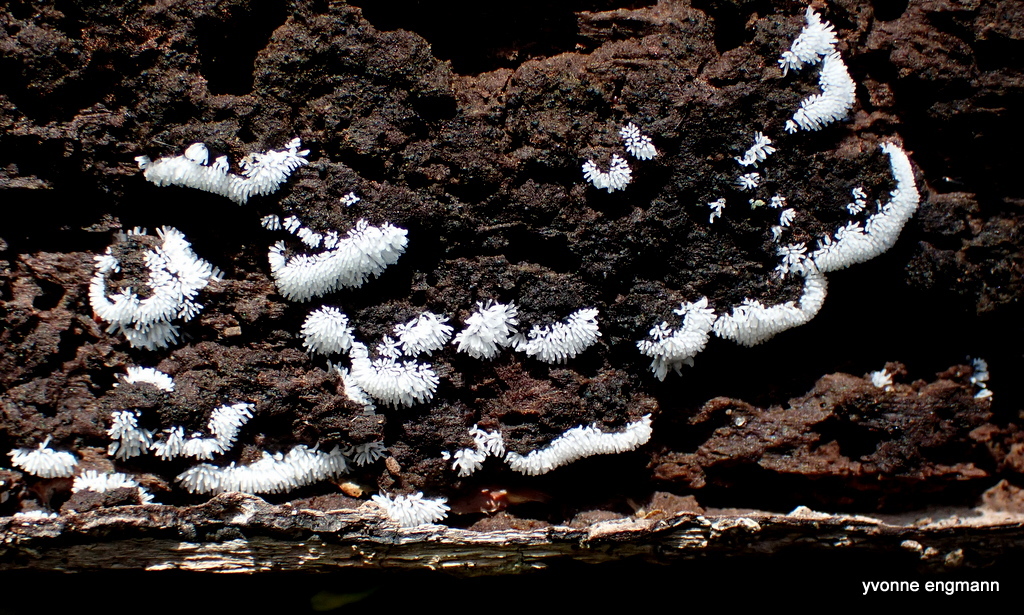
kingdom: Protozoa
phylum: Mycetozoa
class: Protosteliomycetes
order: Ceratiomyxales
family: Ceratiomyxaceae
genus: Ceratiomyxa
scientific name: Ceratiomyxa fruticulosa
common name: Honeycomb coral slime mold
